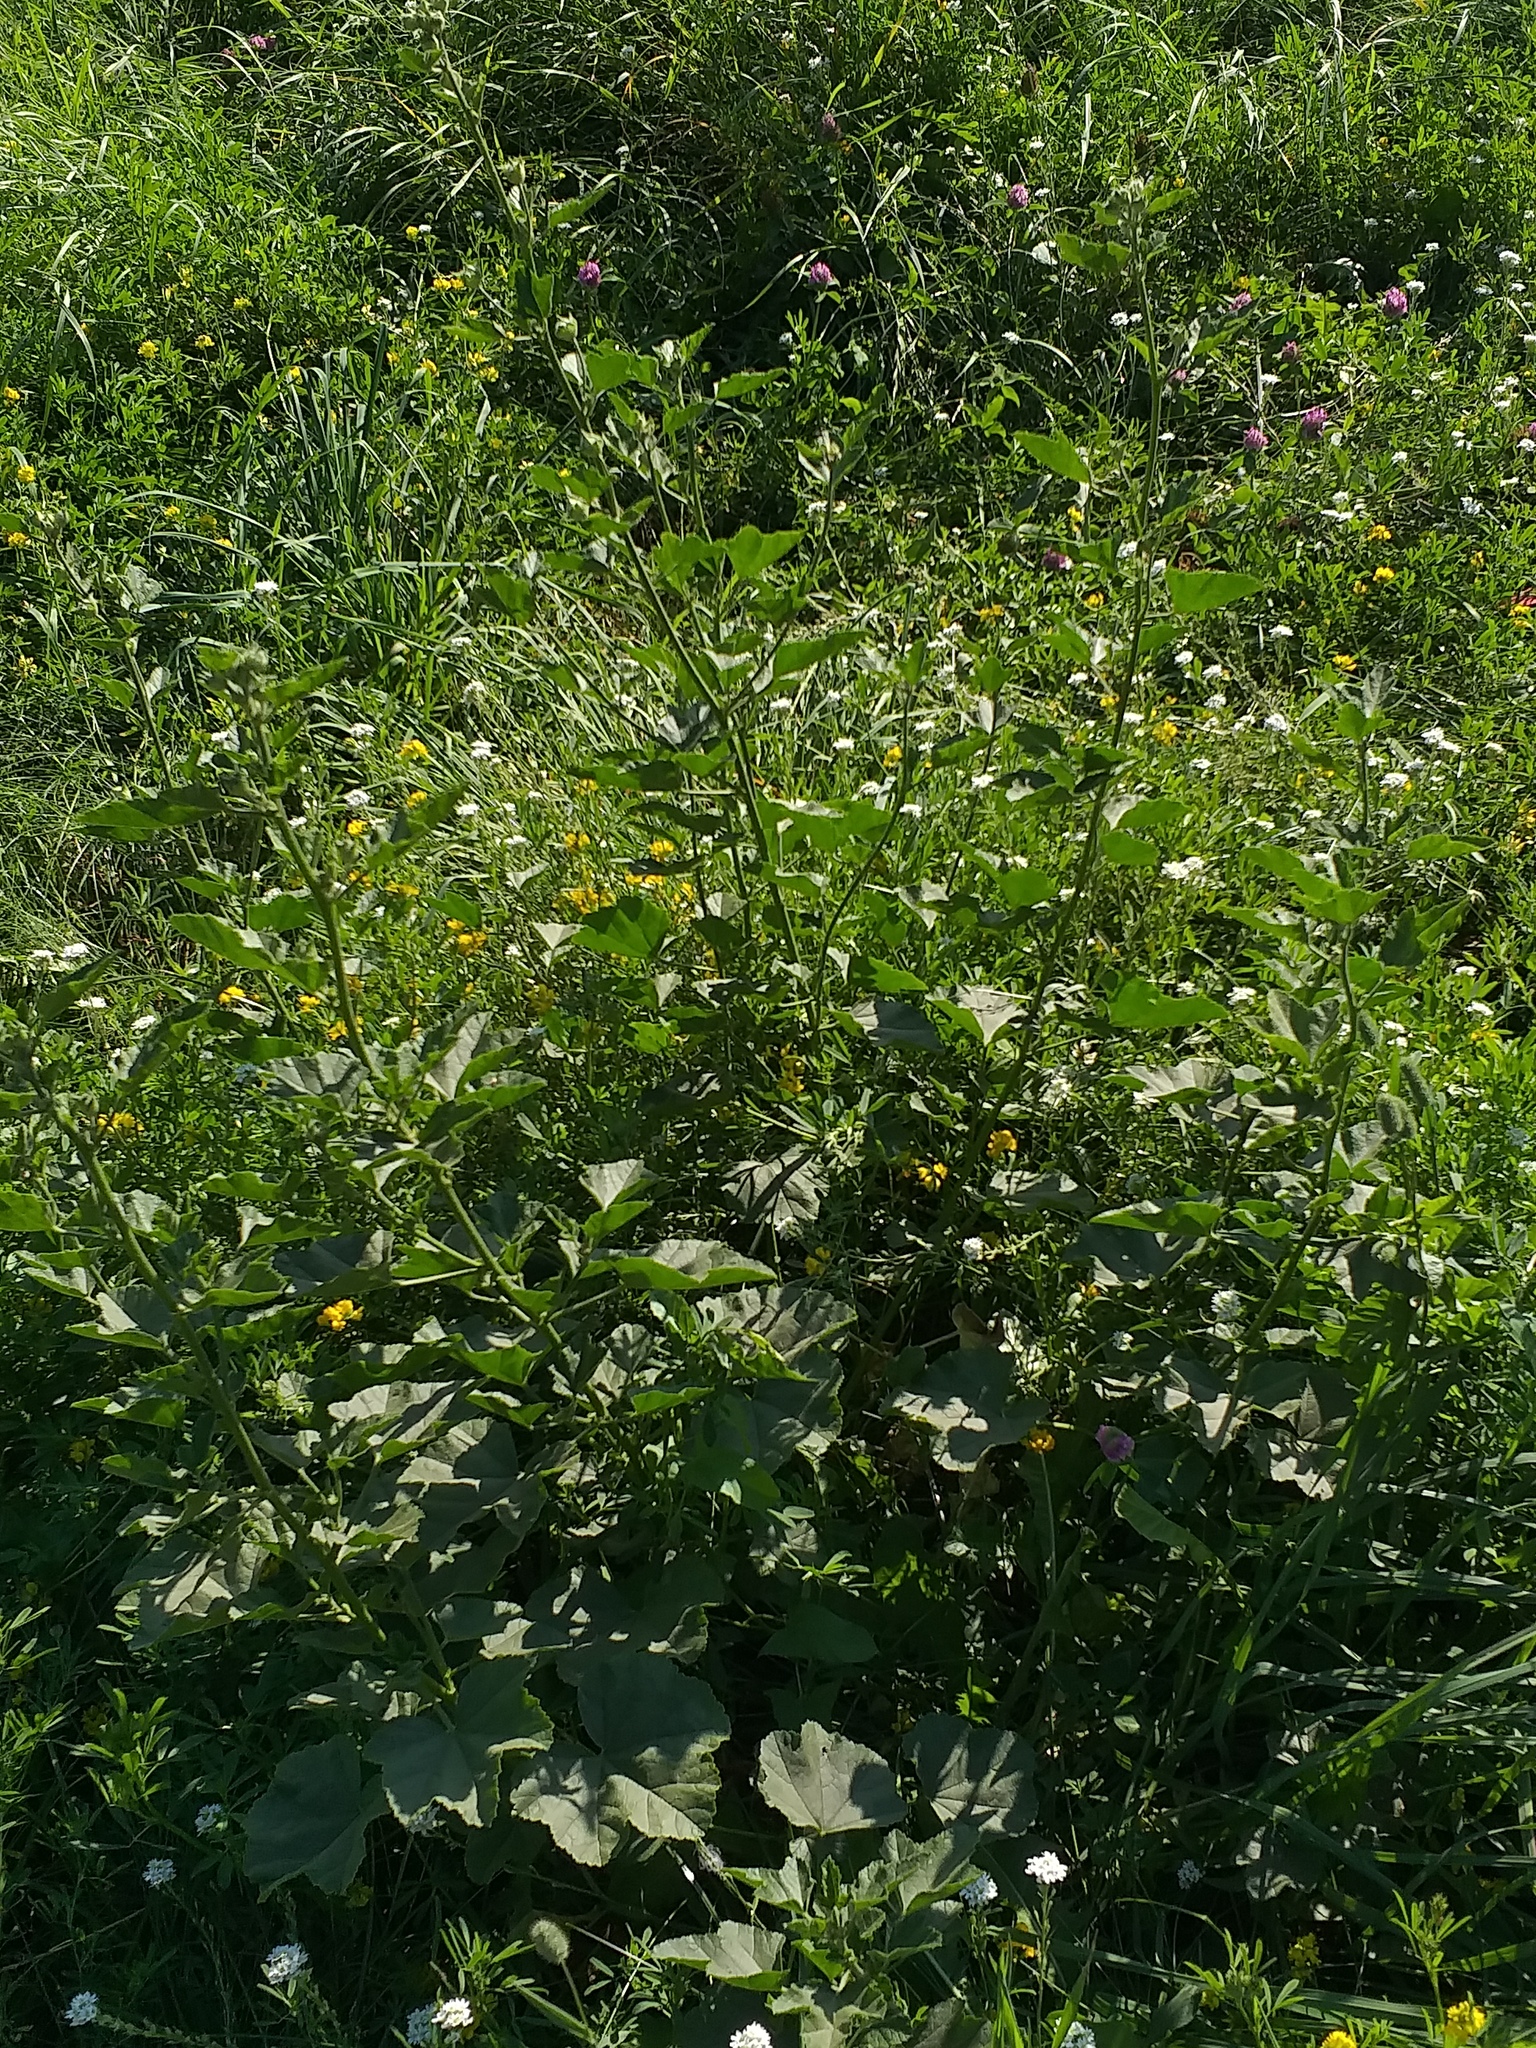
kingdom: Plantae
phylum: Tracheophyta
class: Magnoliopsida
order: Malvales
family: Malvaceae
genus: Malva
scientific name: Malva thuringiaca
